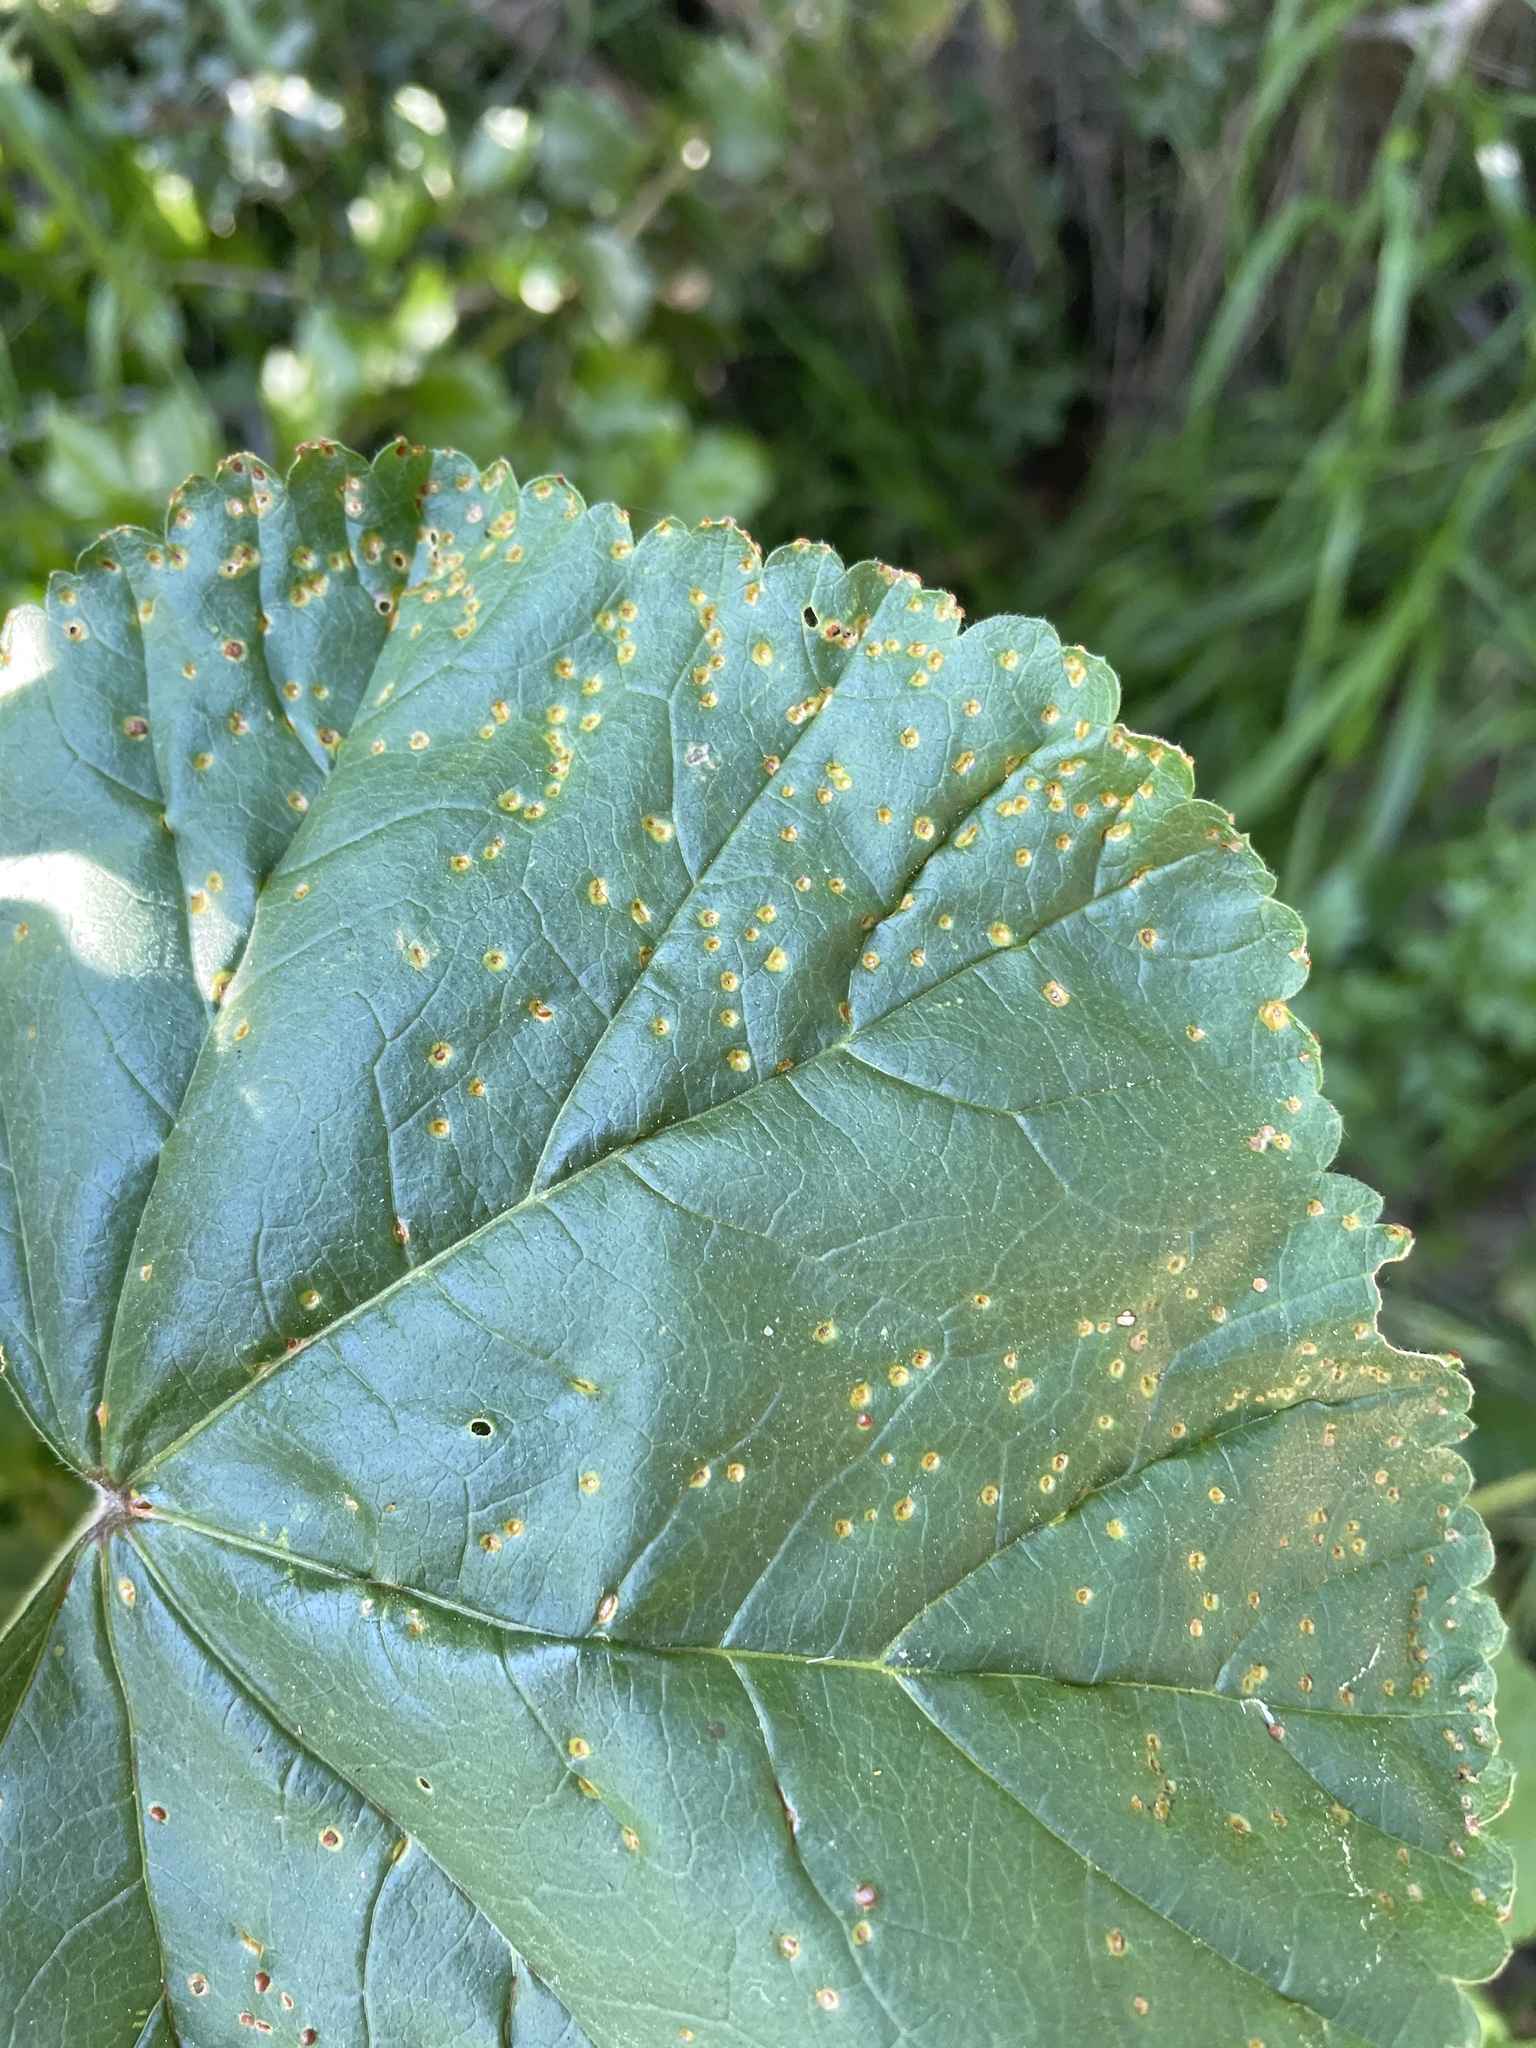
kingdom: Fungi
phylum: Basidiomycota
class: Pucciniomycetes
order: Pucciniales
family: Pucciniaceae
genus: Puccinia
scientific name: Puccinia malvacearum
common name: Hollyhock rust
